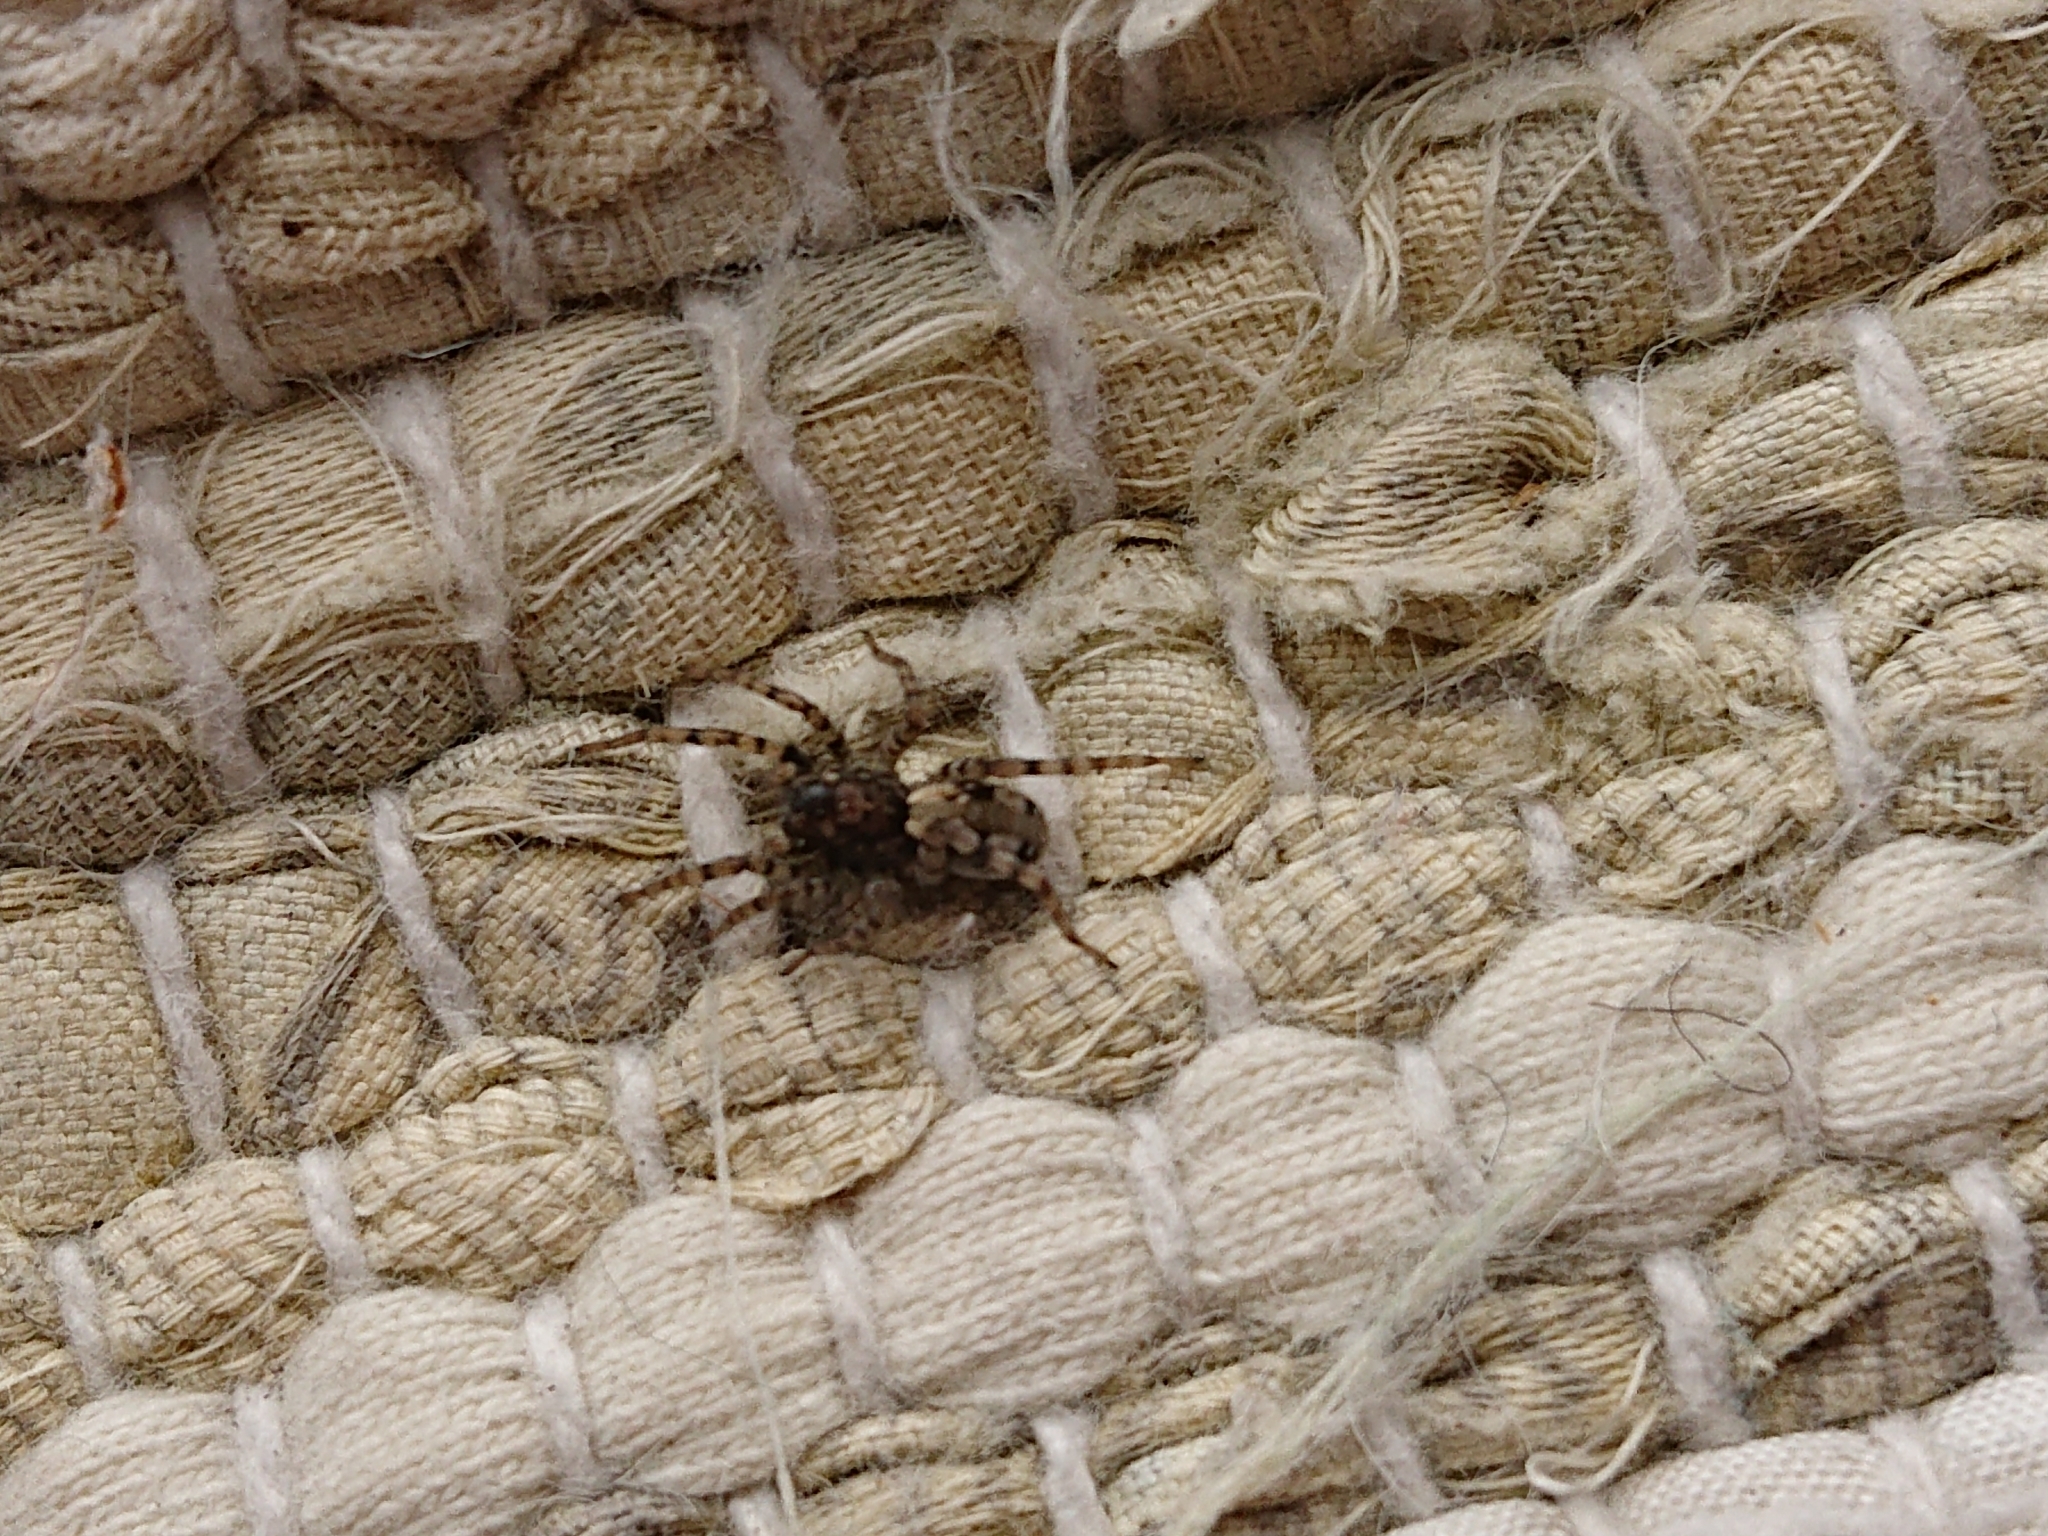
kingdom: Animalia
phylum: Arthropoda
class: Arachnida
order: Araneae
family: Lycosidae
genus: Arctosa
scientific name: Arctosa perita
